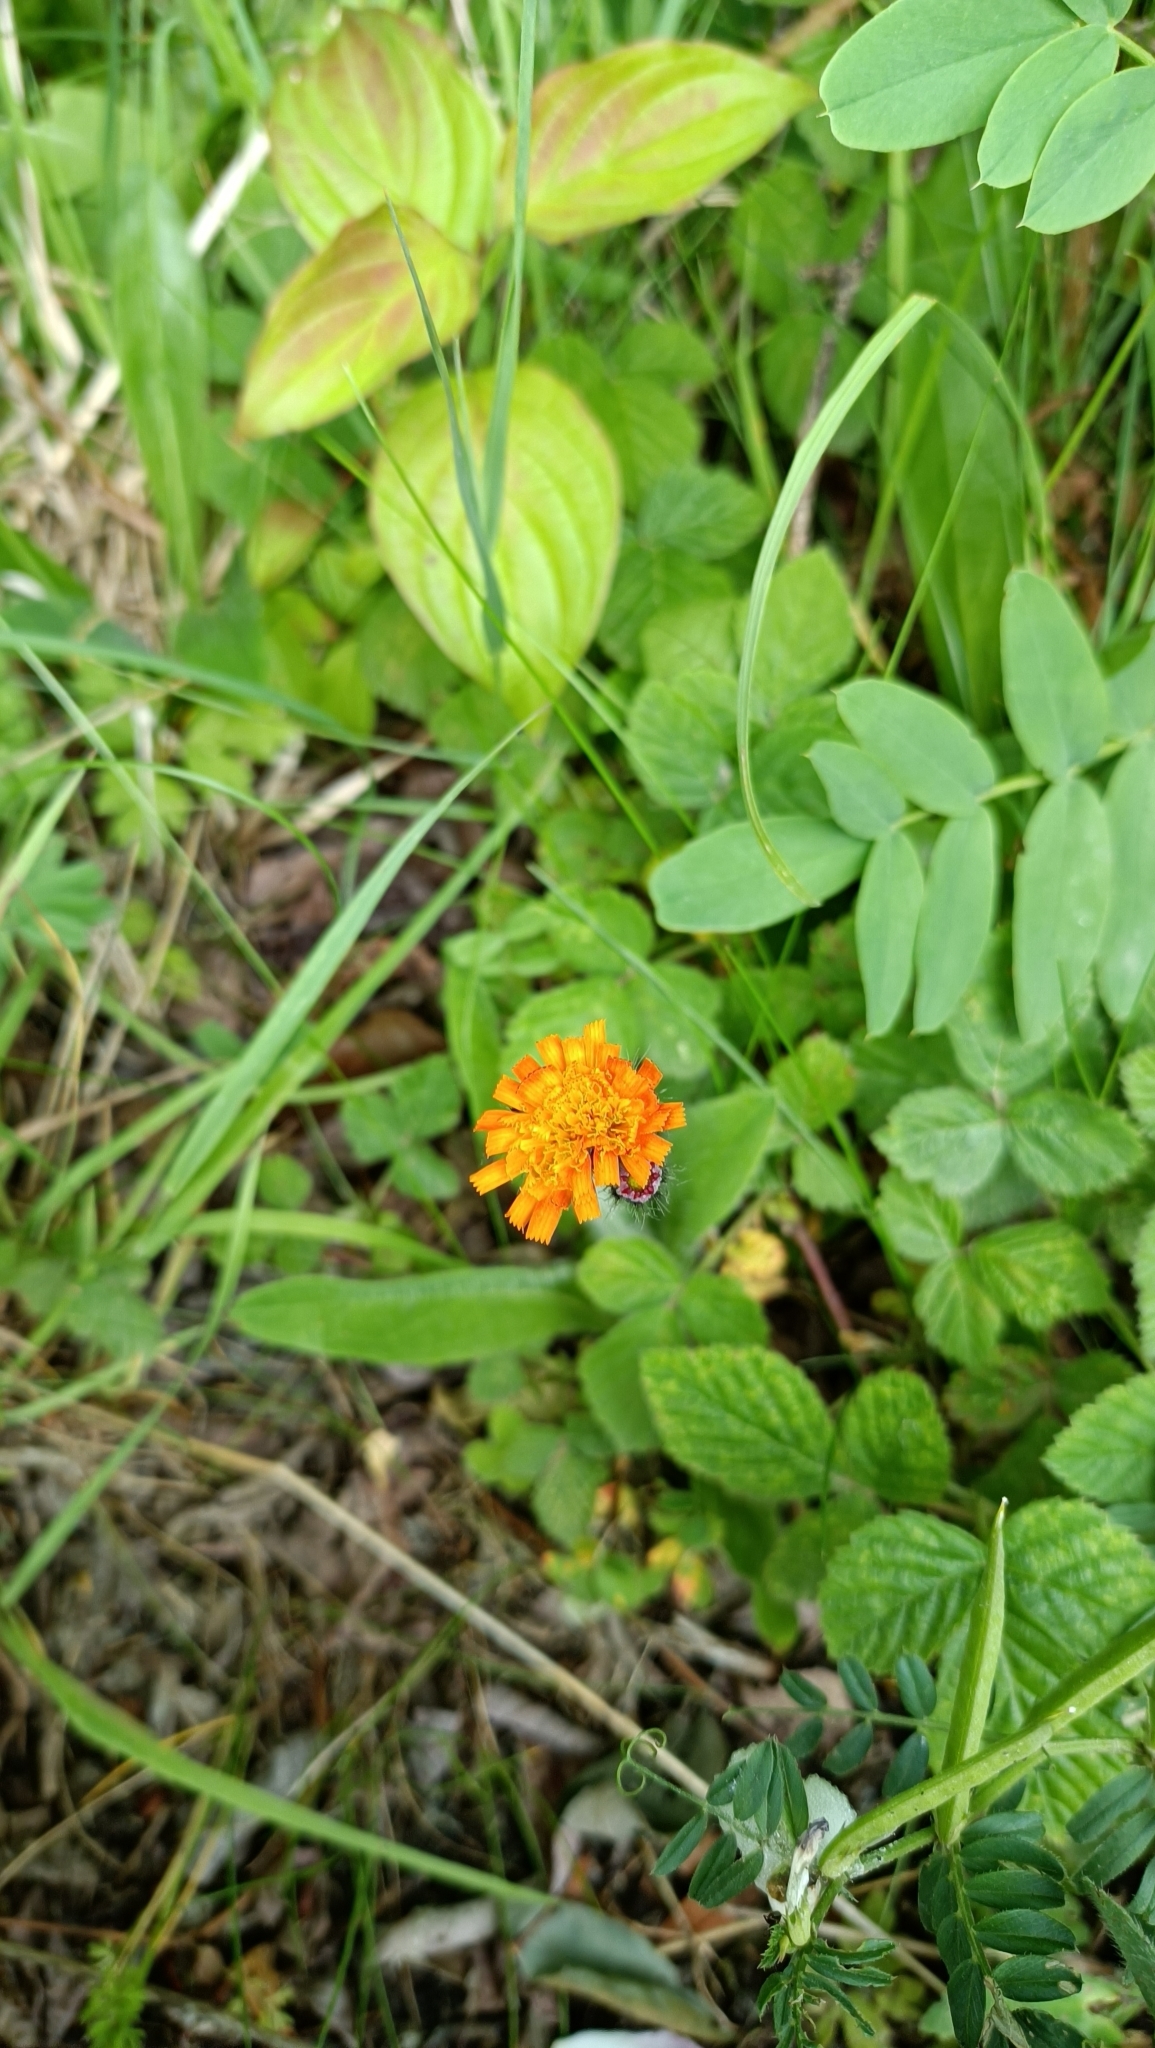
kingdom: Plantae
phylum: Tracheophyta
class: Magnoliopsida
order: Asterales
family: Asteraceae
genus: Pilosella
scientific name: Pilosella aurantiaca
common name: Fox-and-cubs
